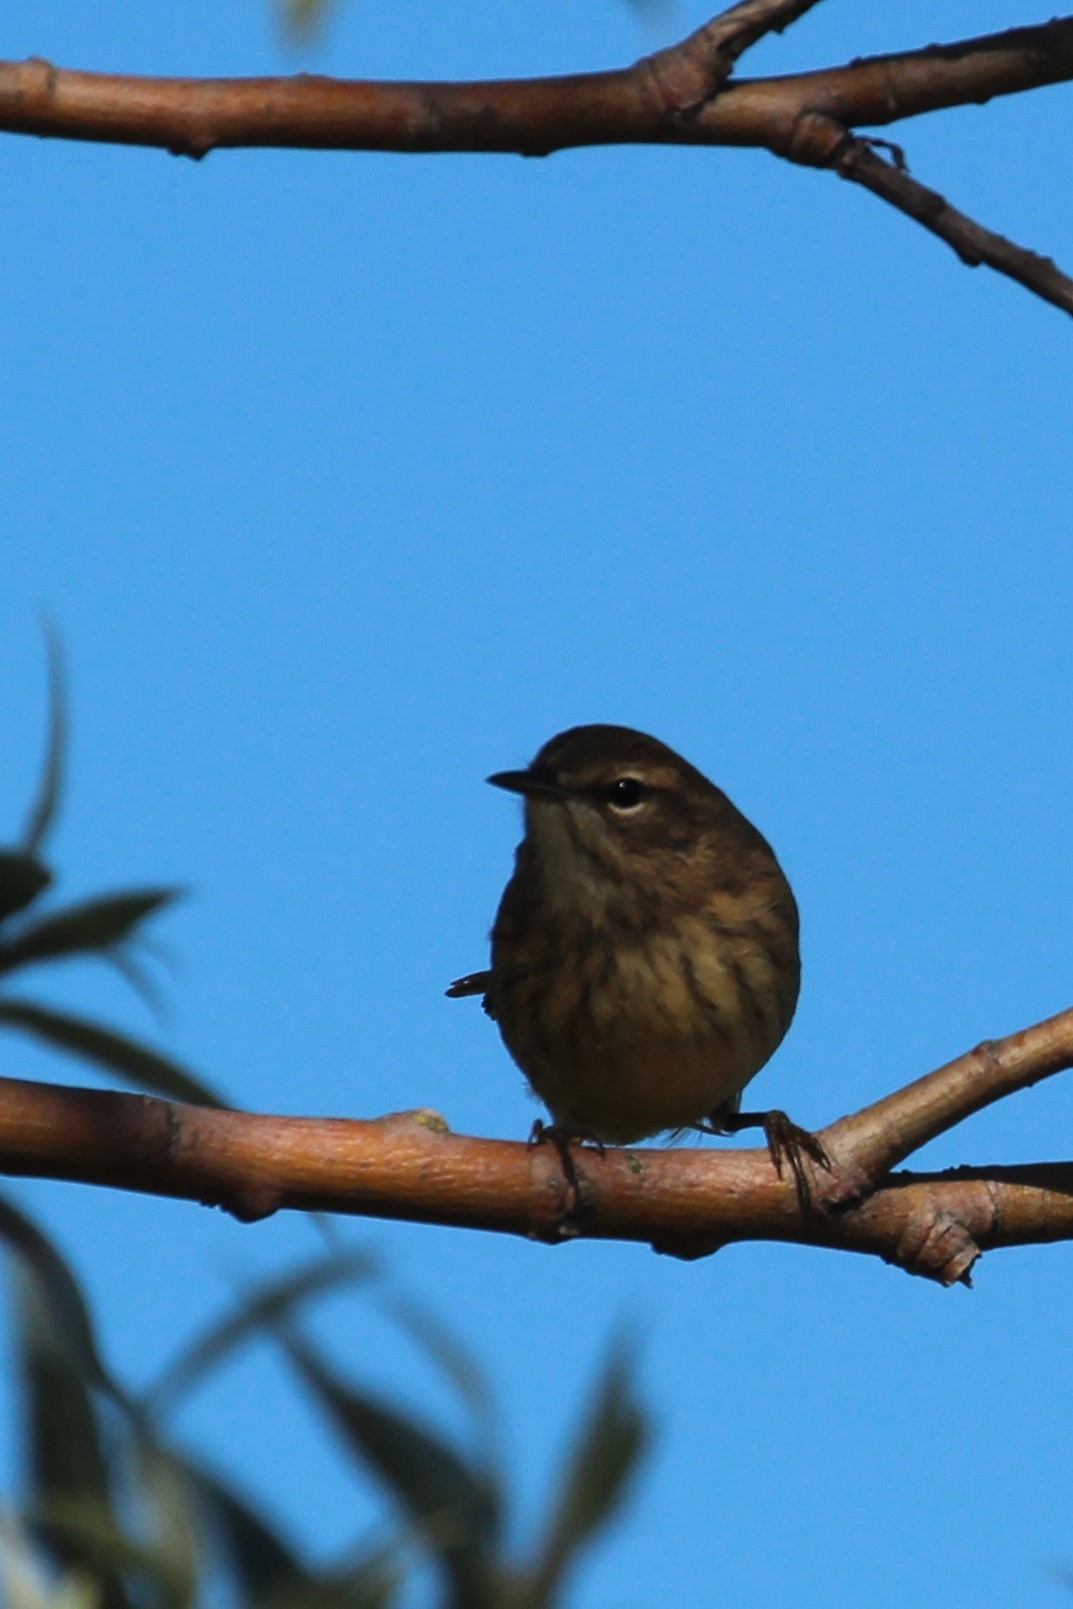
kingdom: Animalia
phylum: Chordata
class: Aves
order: Passeriformes
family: Parulidae
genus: Setophaga
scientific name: Setophaga palmarum
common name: Palm warbler
